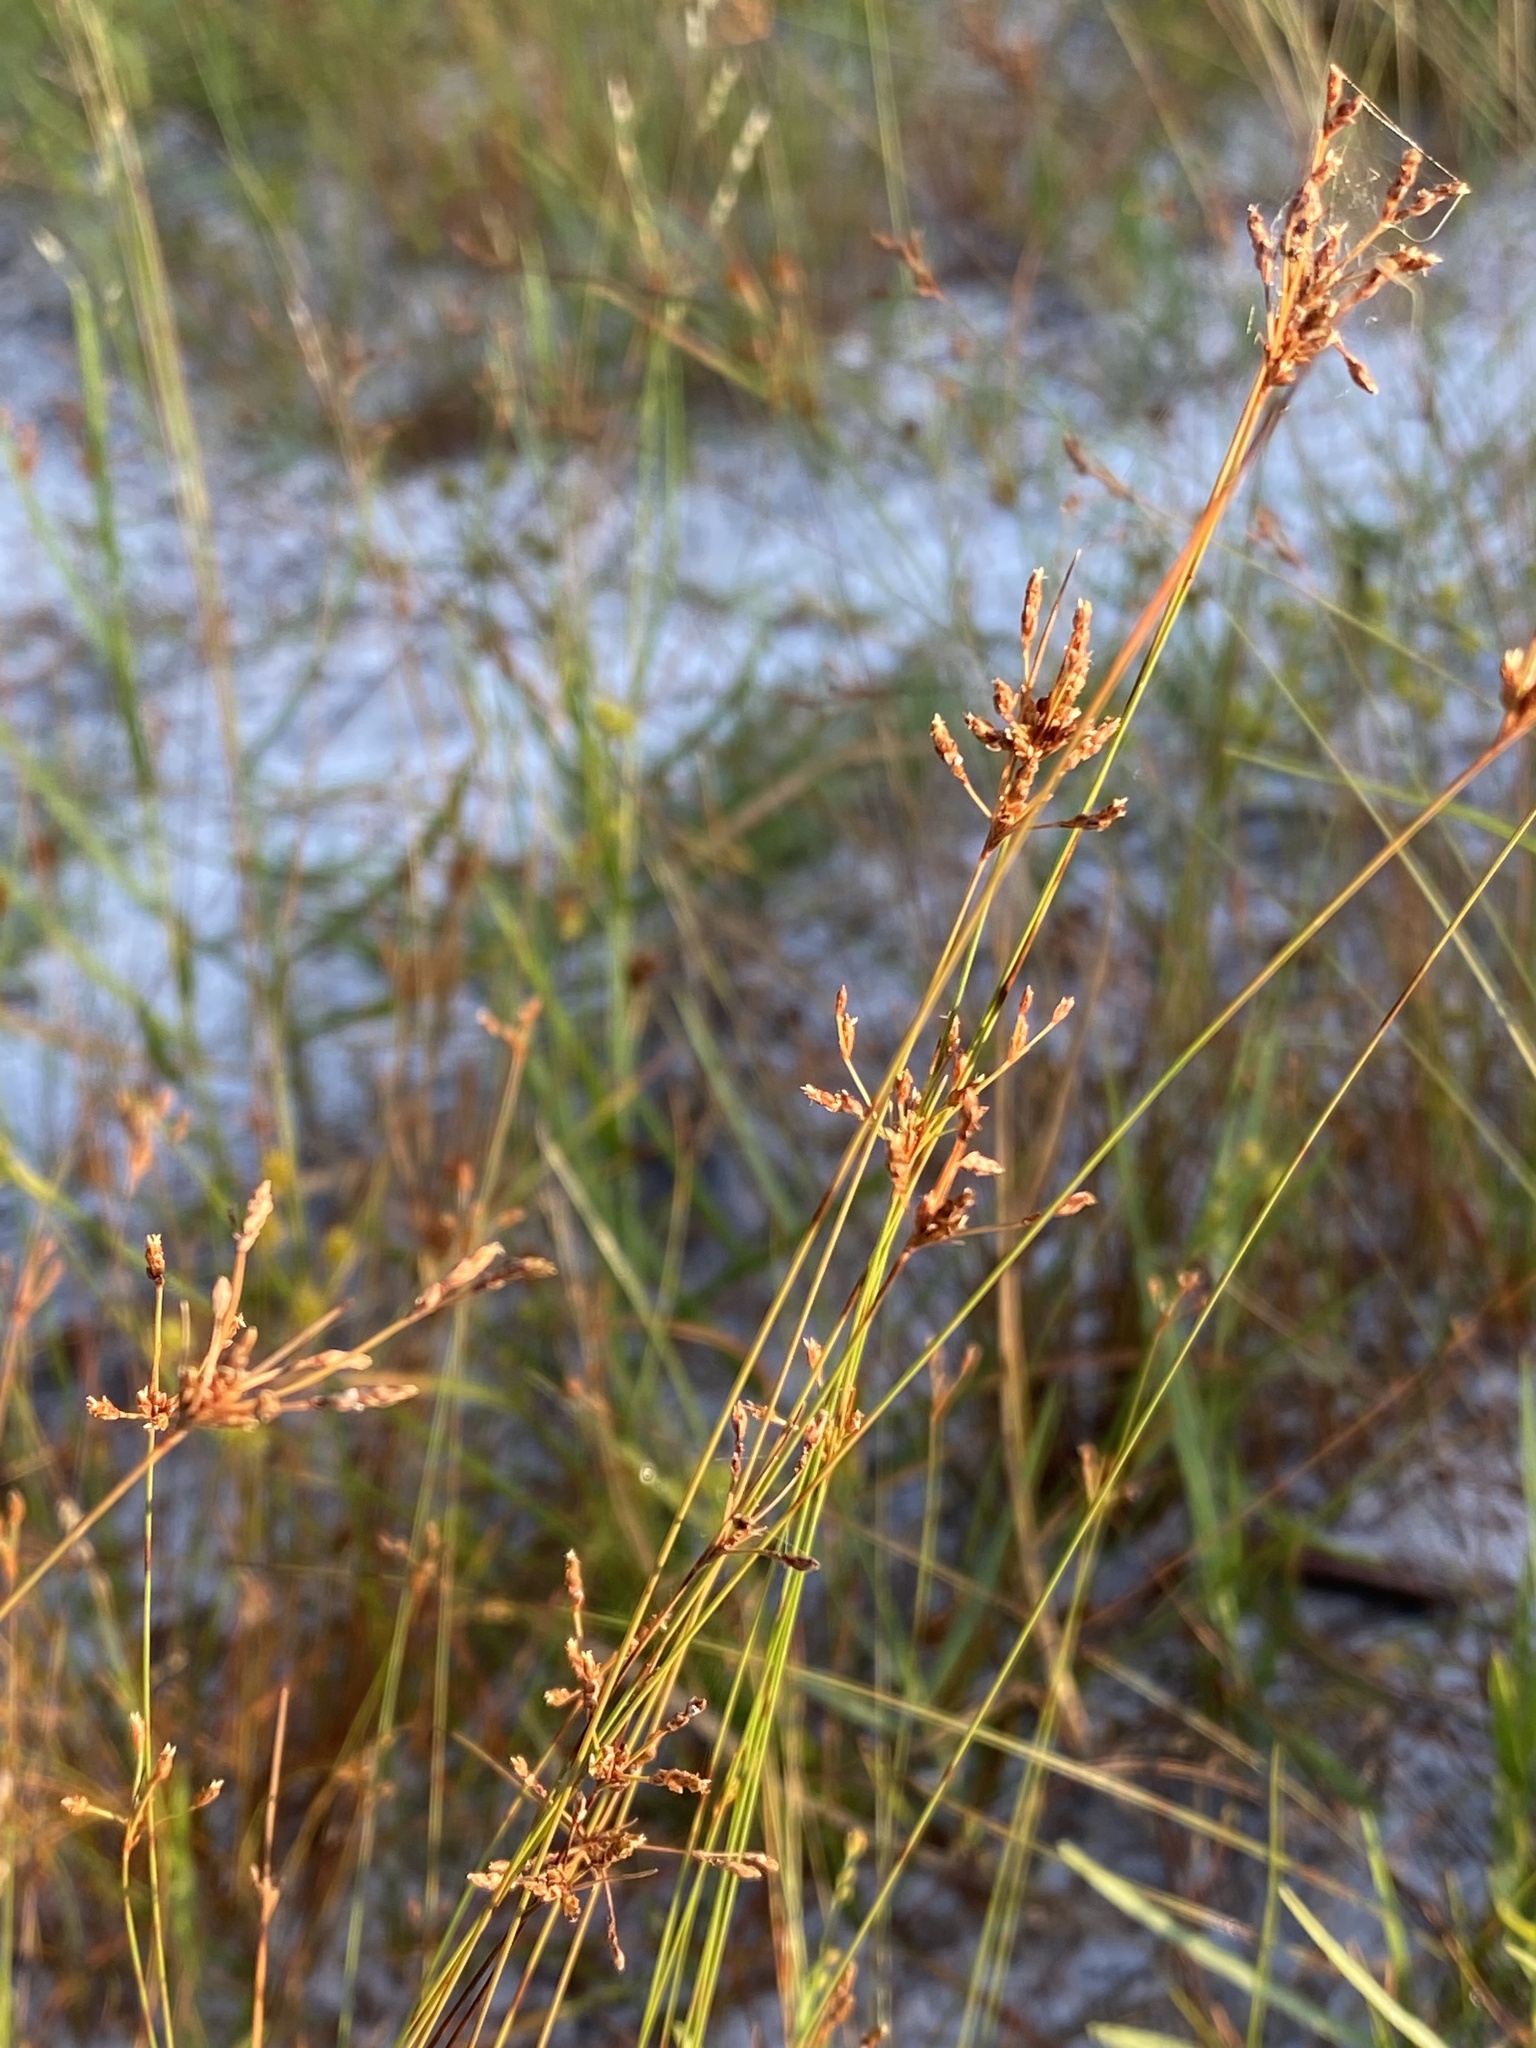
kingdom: Plantae
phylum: Tracheophyta
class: Liliopsida
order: Poales
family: Cyperaceae
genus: Bulbostylis
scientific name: Bulbostylis ciliatifolia
